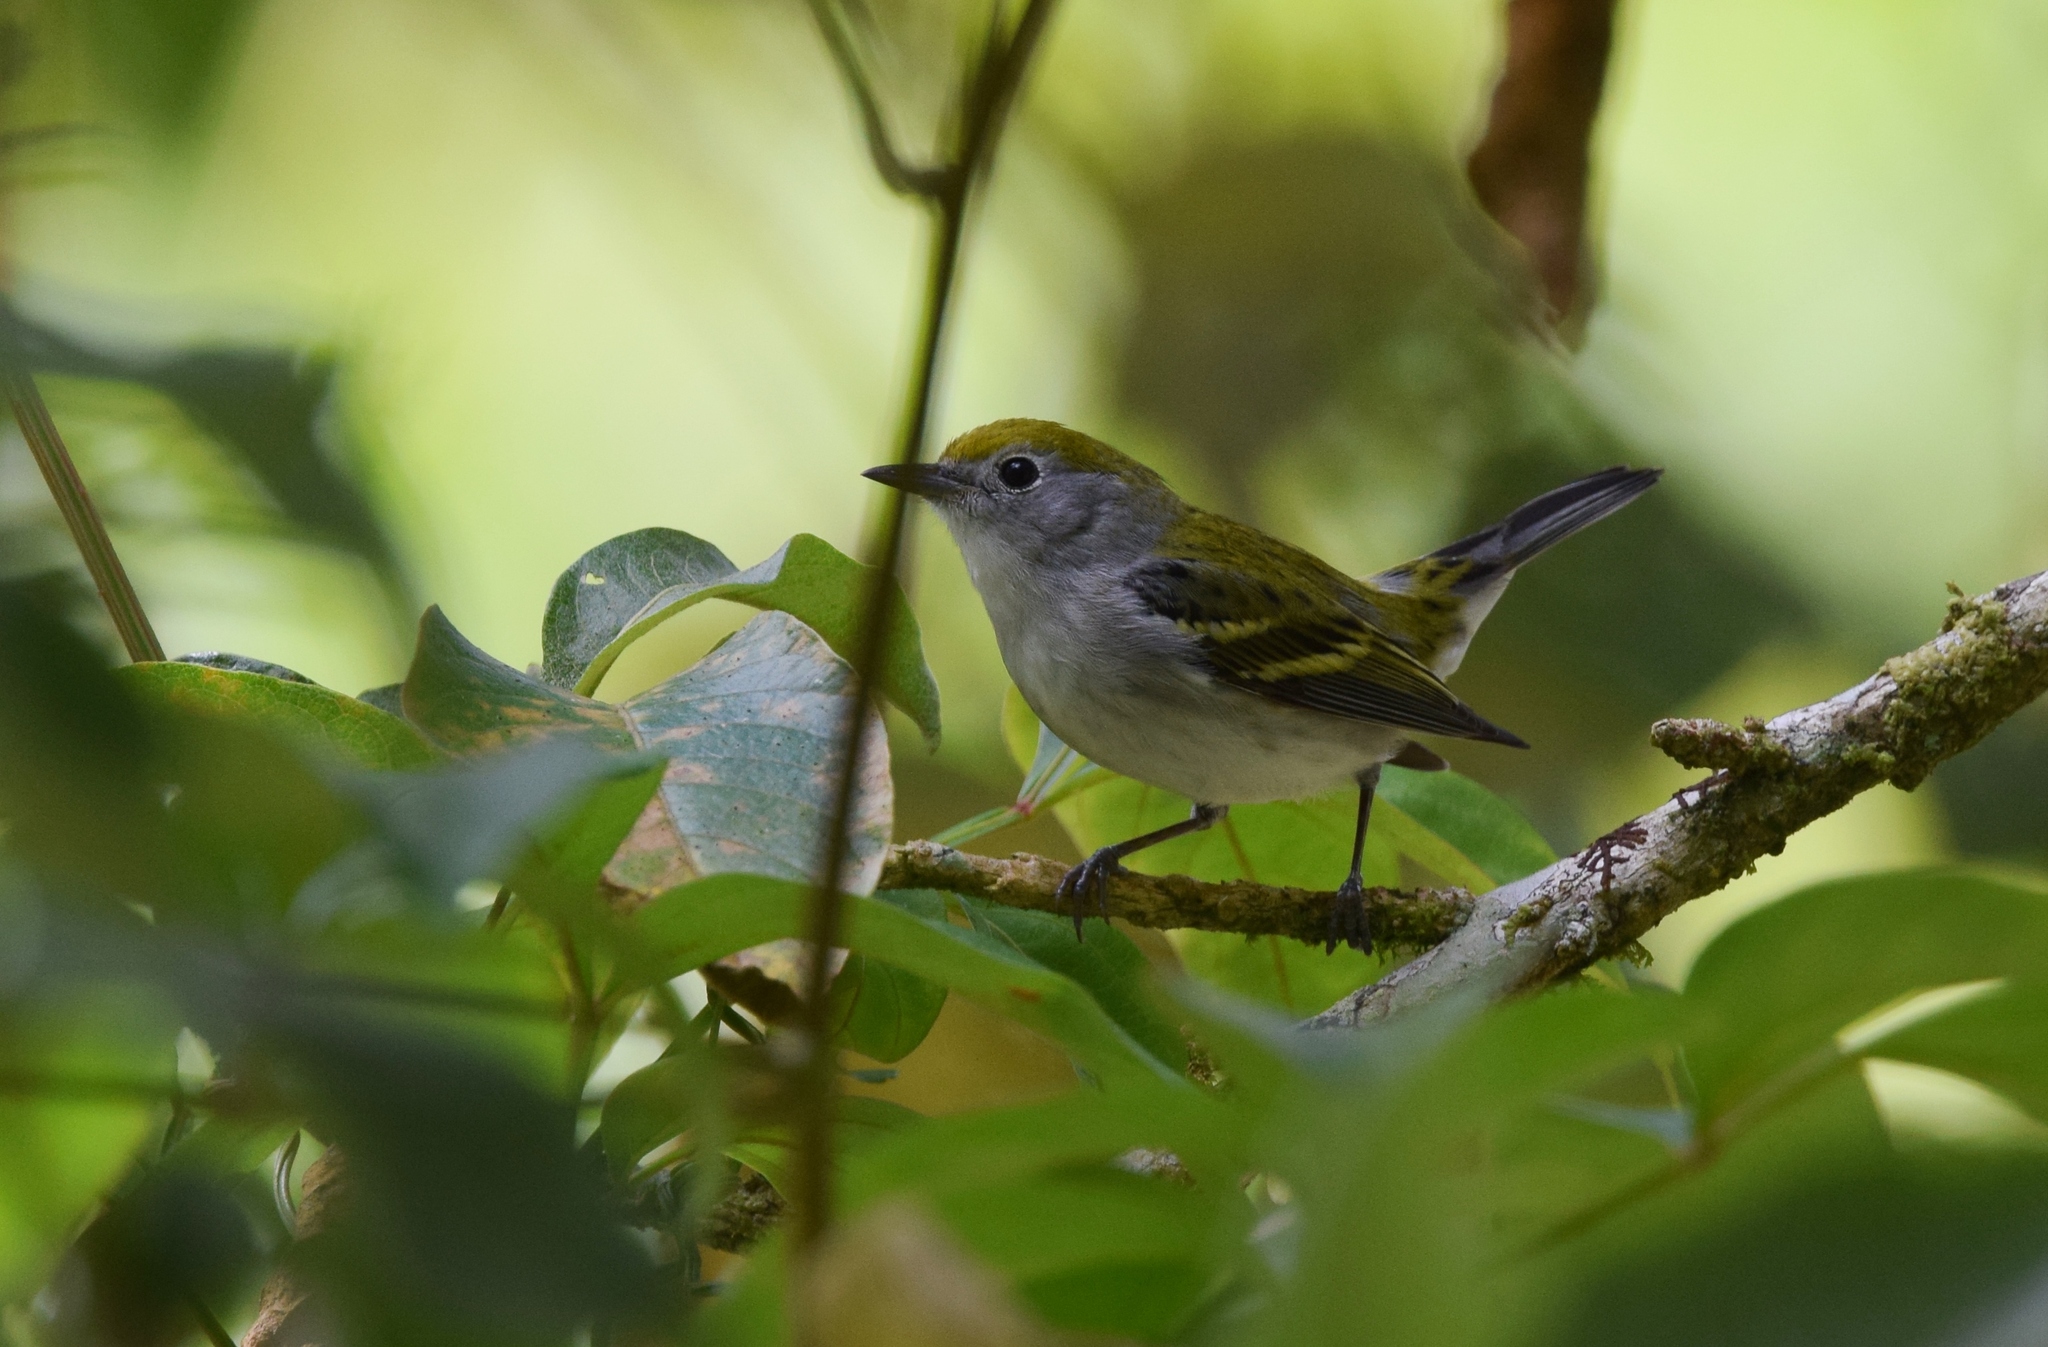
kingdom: Animalia
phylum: Chordata
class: Aves
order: Passeriformes
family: Parulidae
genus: Setophaga
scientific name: Setophaga pensylvanica
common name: Chestnut-sided warbler
